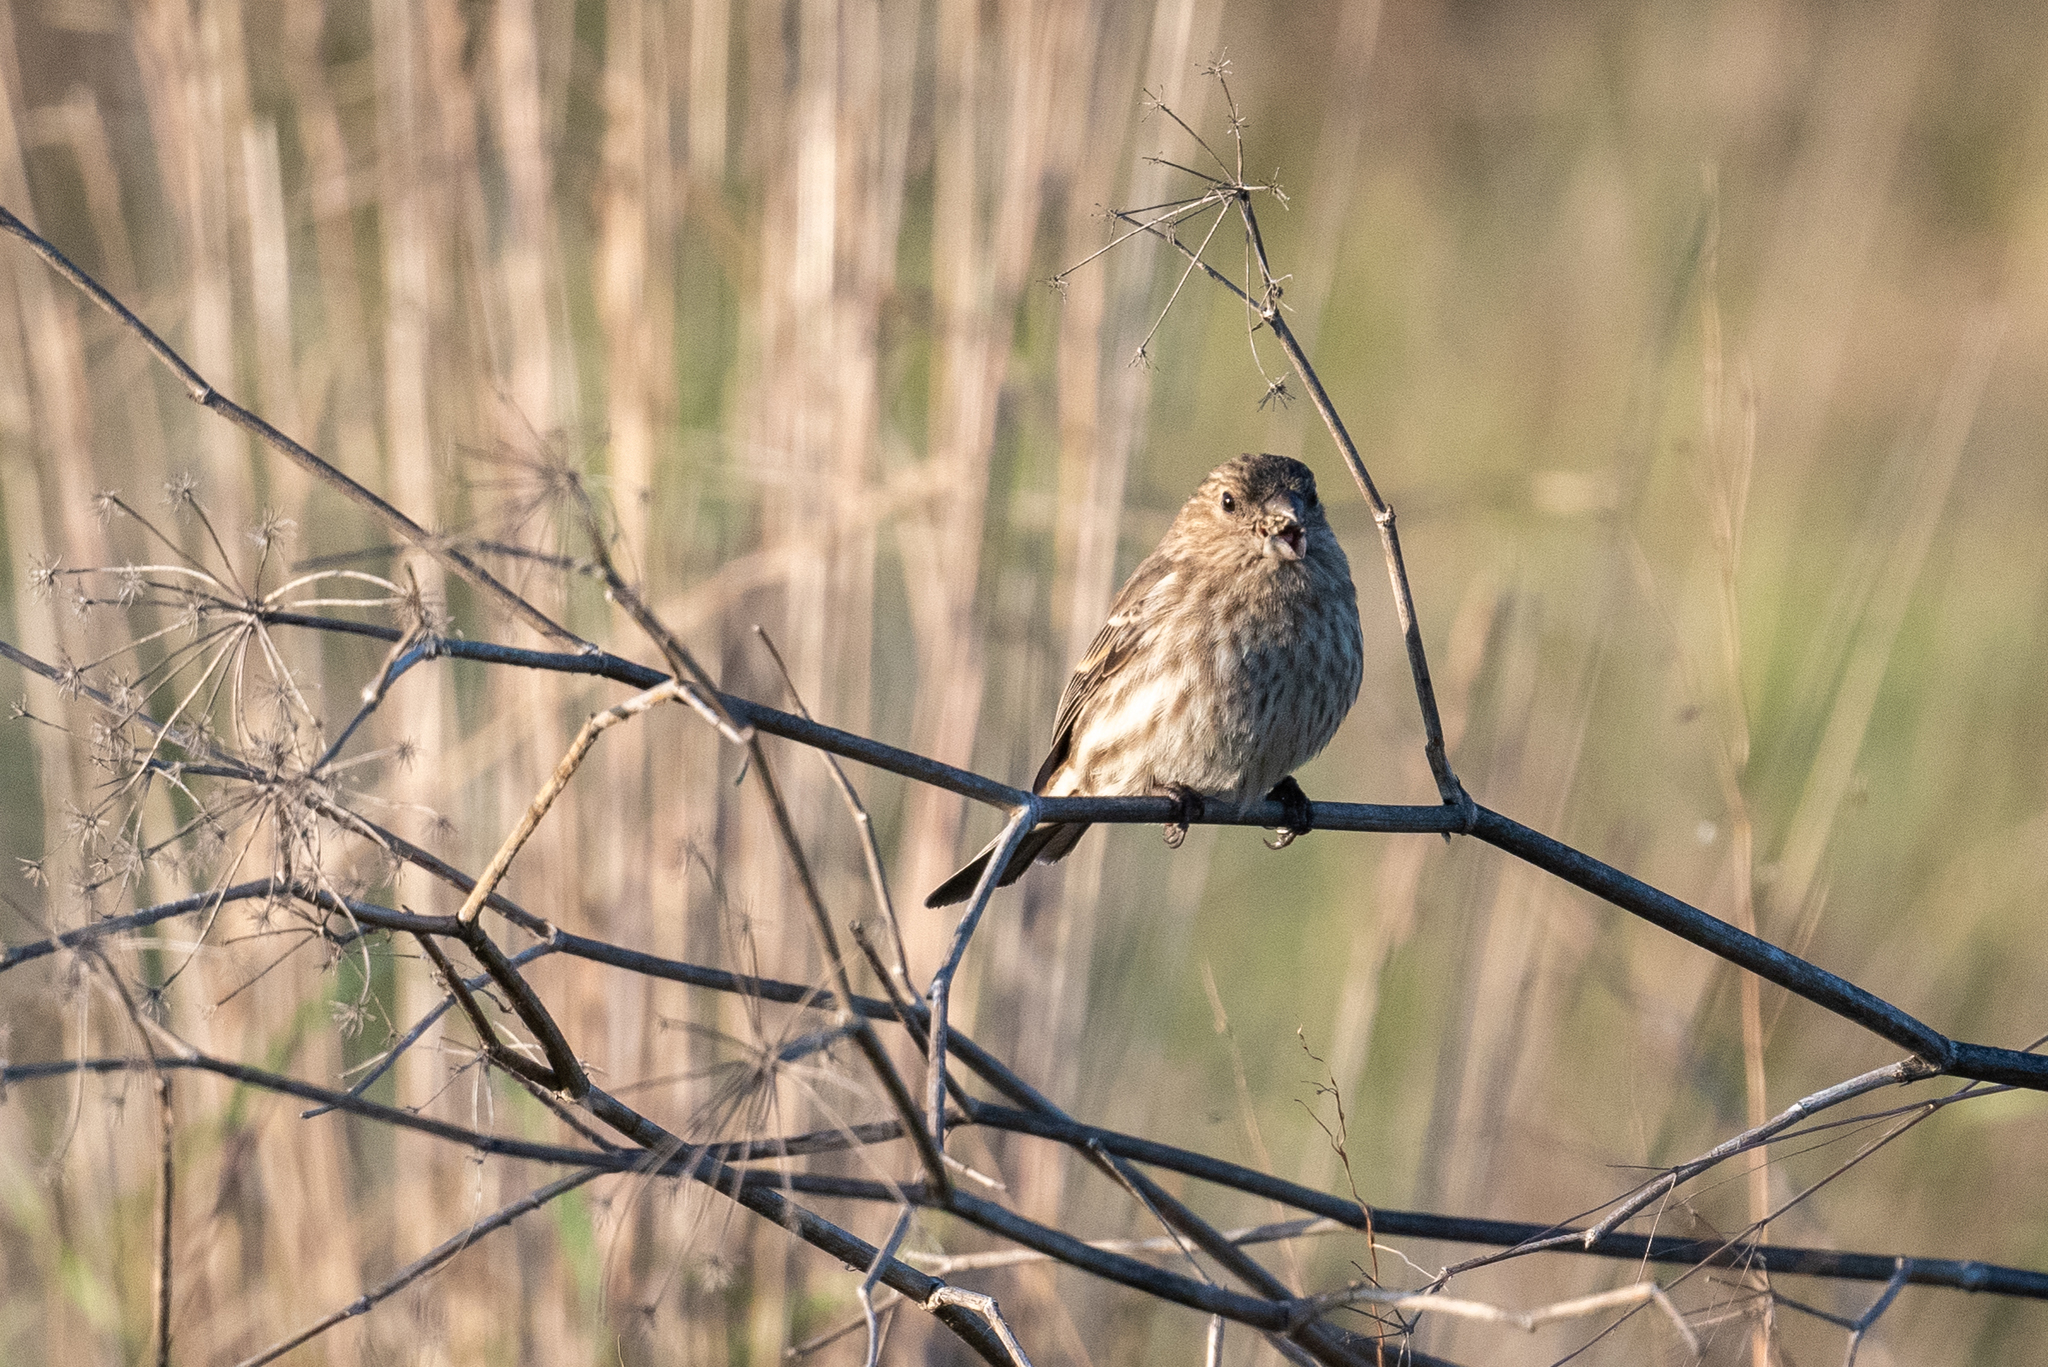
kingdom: Animalia
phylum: Chordata
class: Aves
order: Passeriformes
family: Fringillidae
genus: Haemorhous
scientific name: Haemorhous mexicanus
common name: House finch
